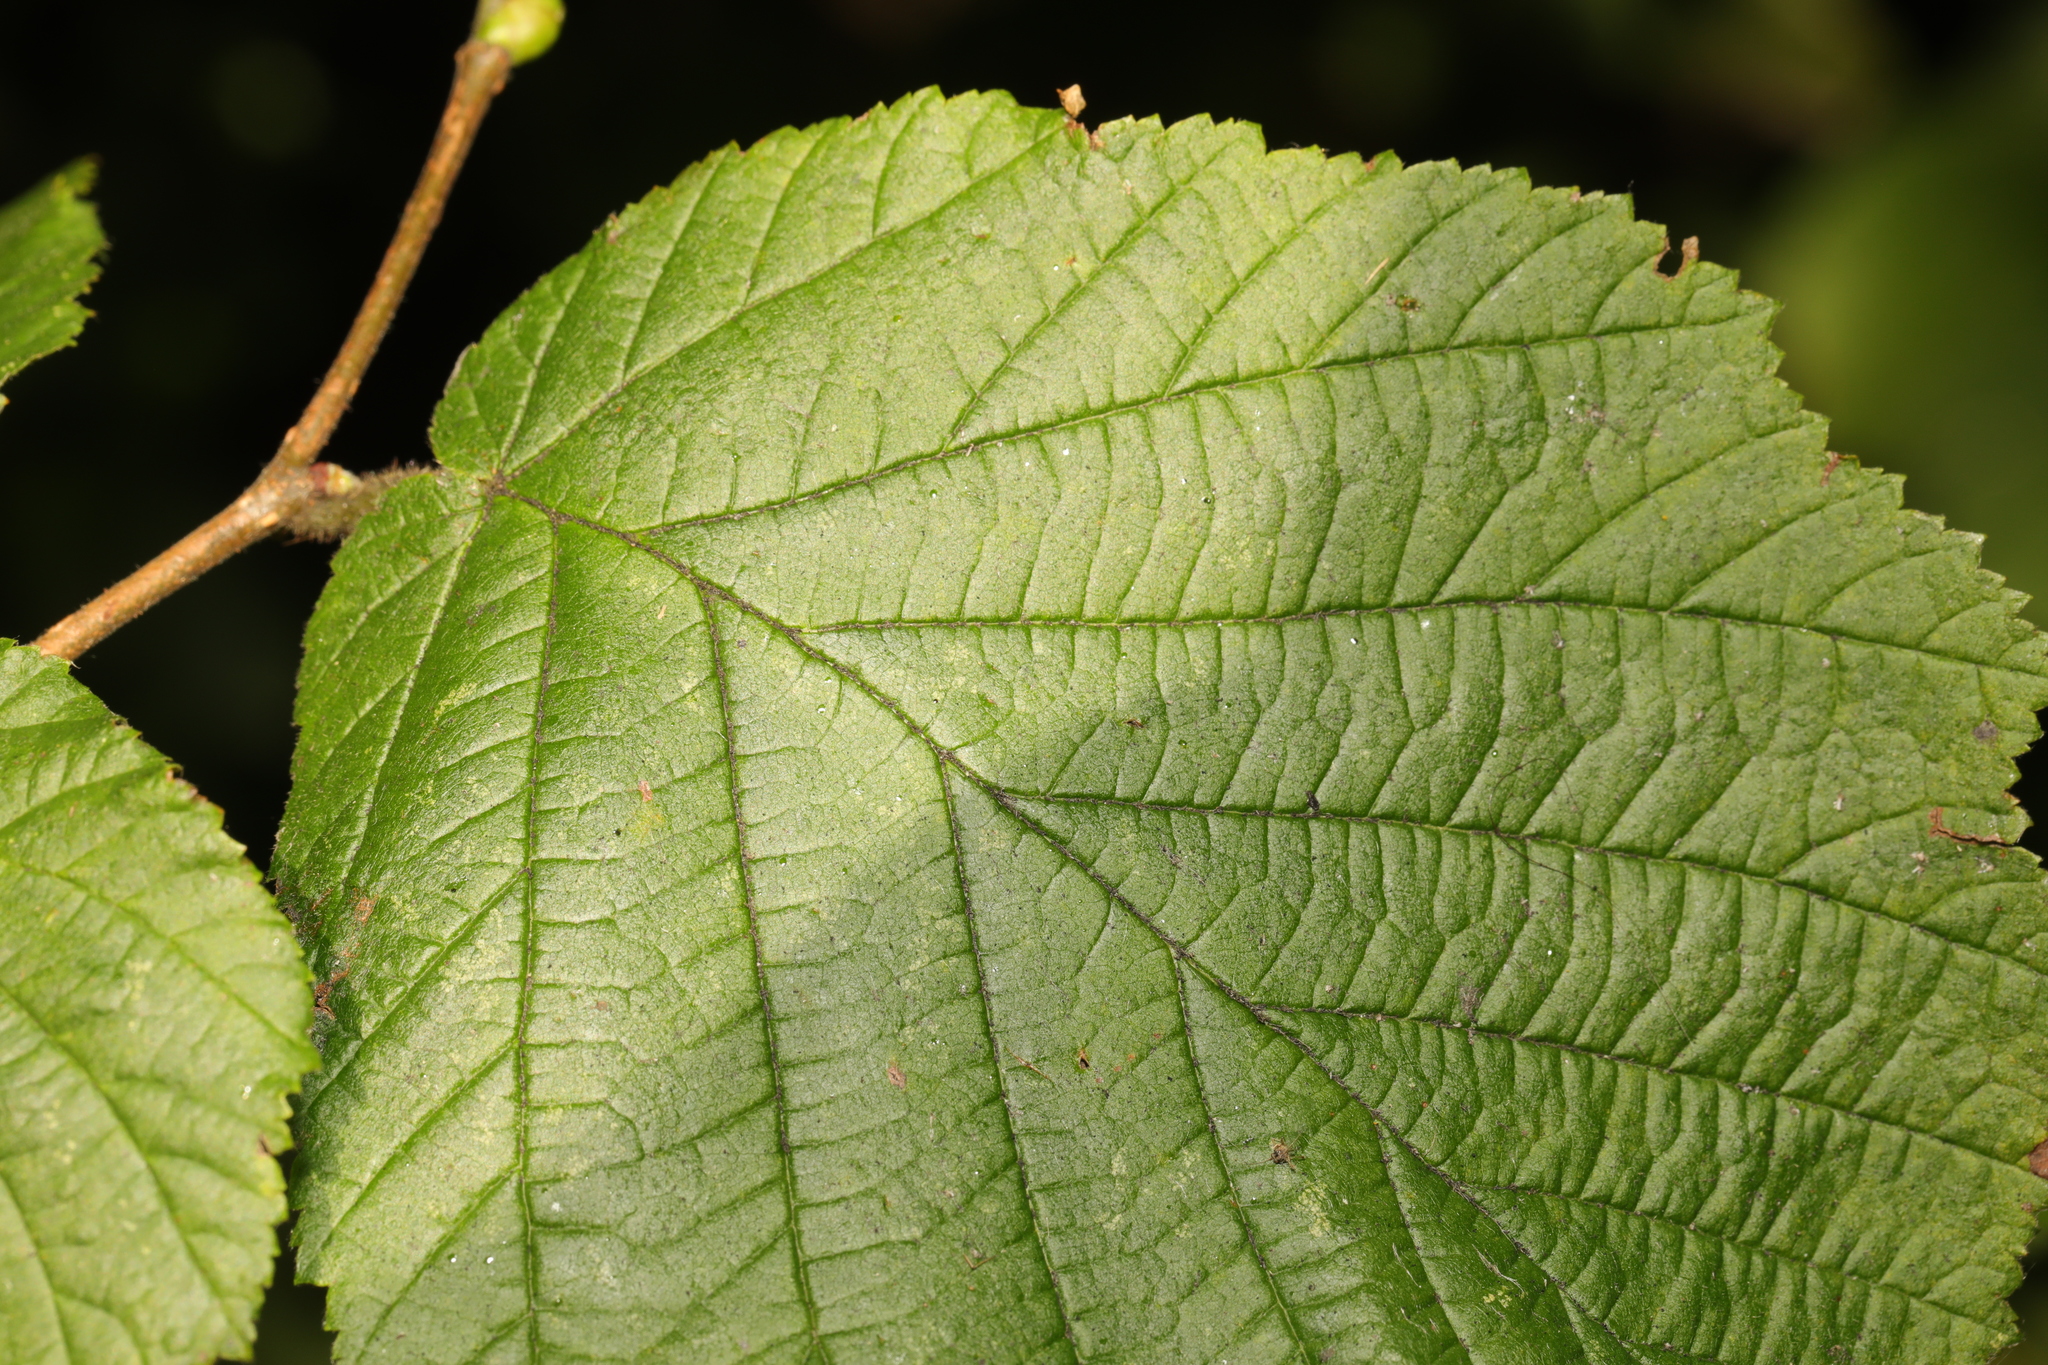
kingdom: Plantae
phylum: Tracheophyta
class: Magnoliopsida
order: Fagales
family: Betulaceae
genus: Corylus
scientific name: Corylus avellana
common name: European hazel
